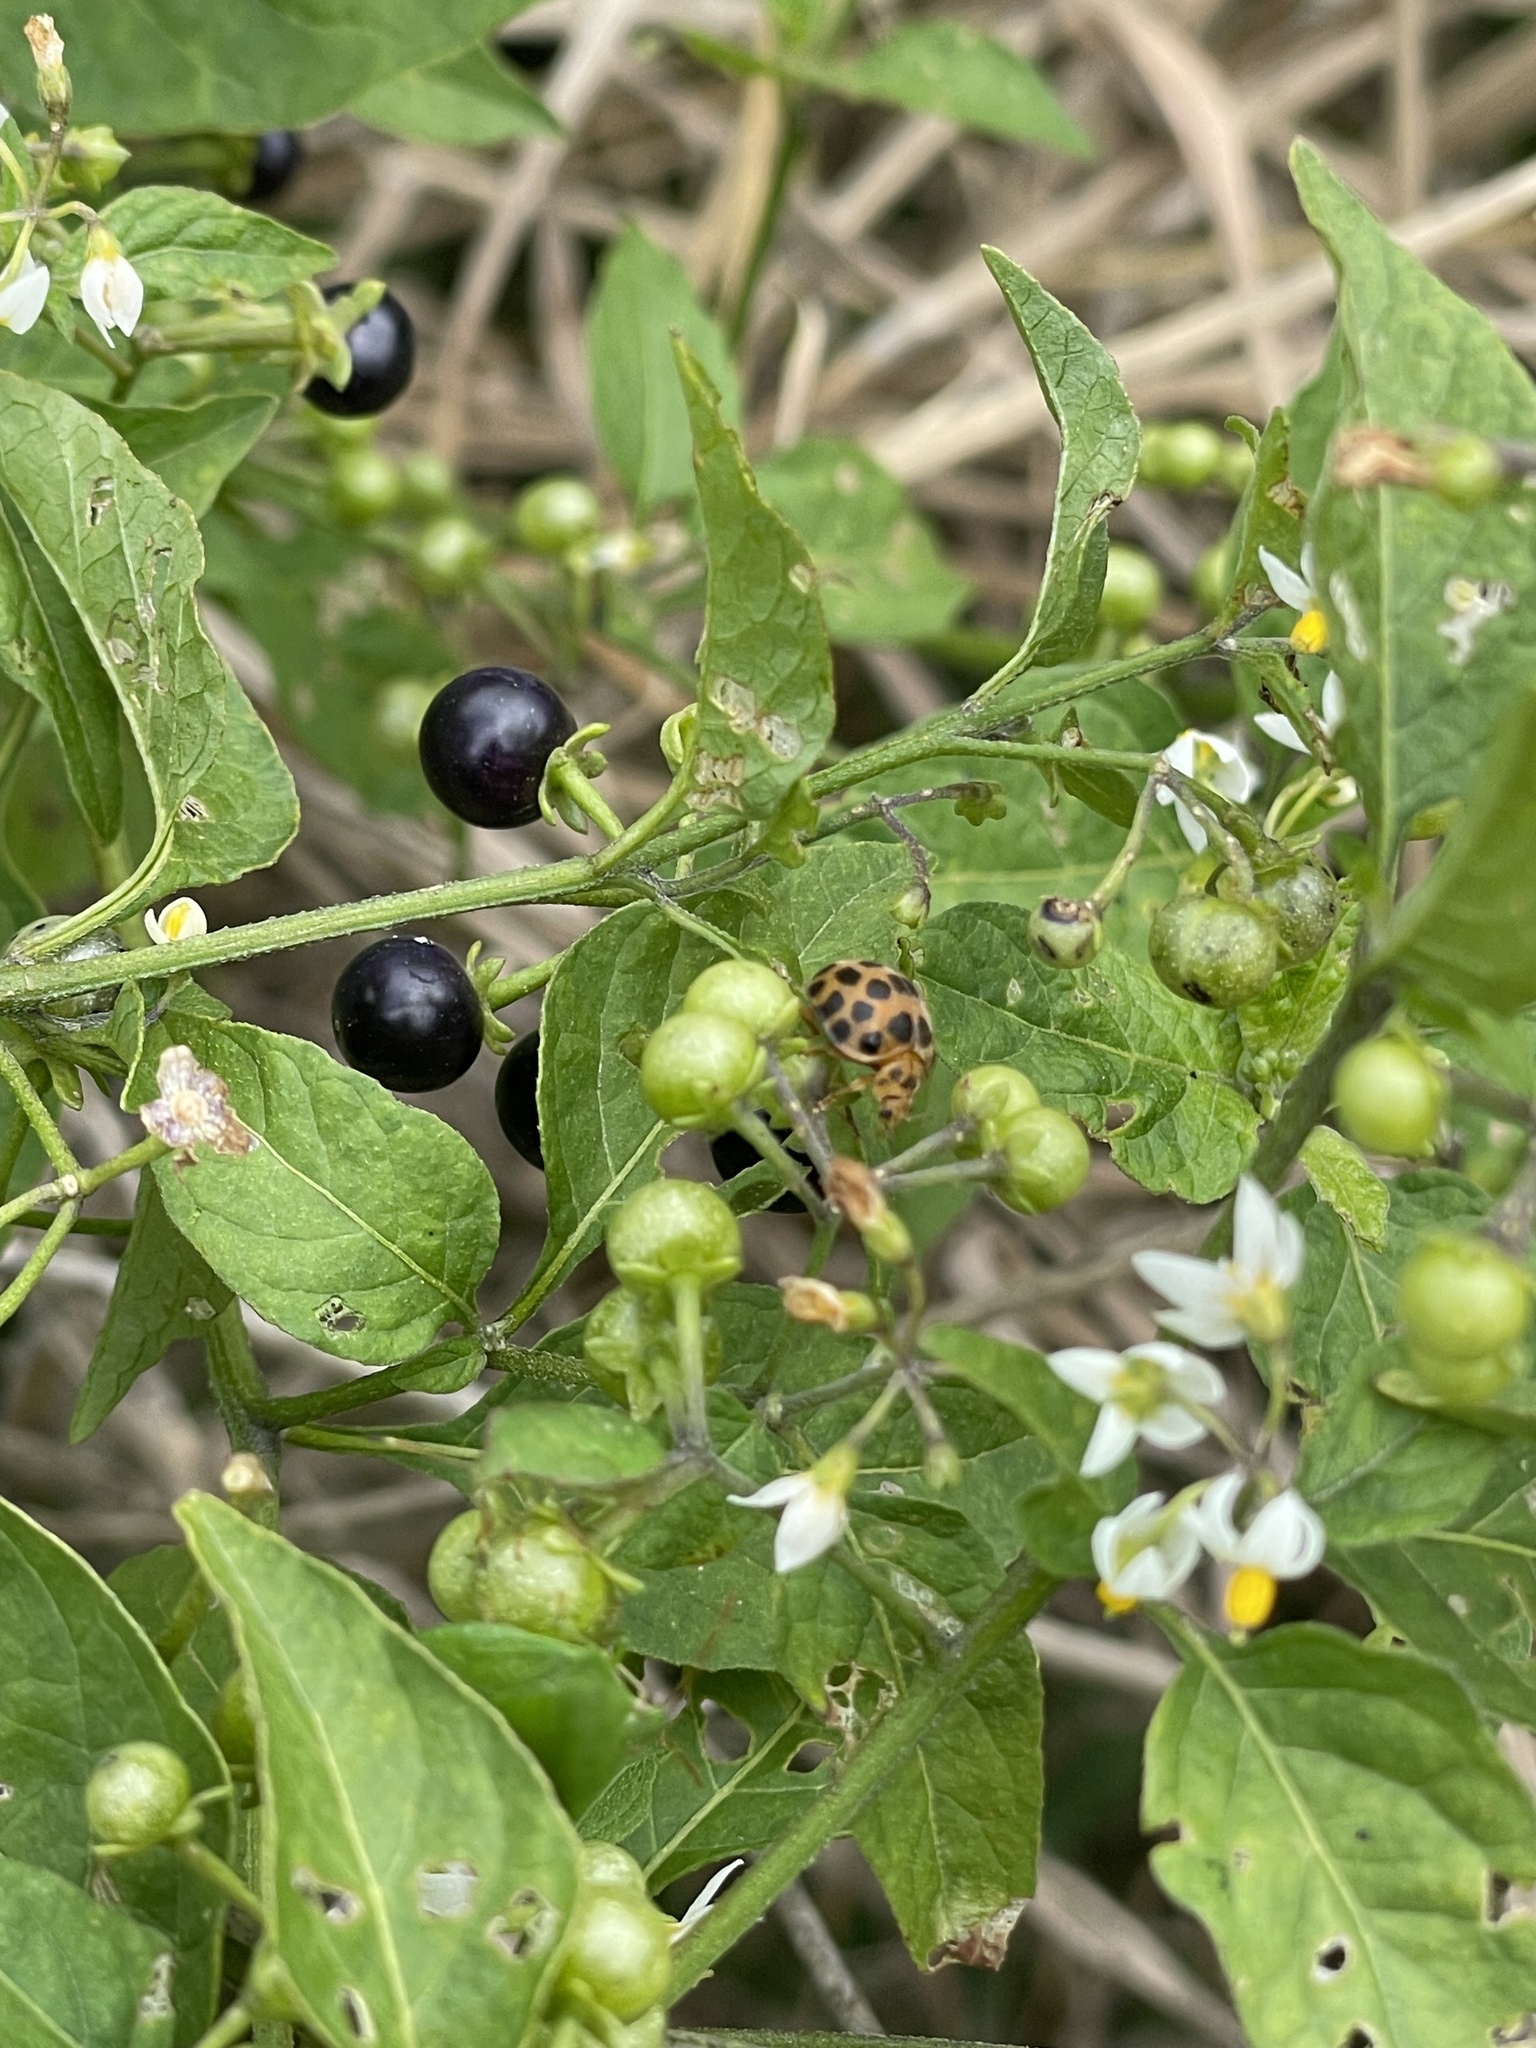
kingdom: Animalia
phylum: Arthropoda
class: Insecta
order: Coleoptera
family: Coccinellidae
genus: Henosepilachna
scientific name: Henosepilachna vigintioctopunctata
